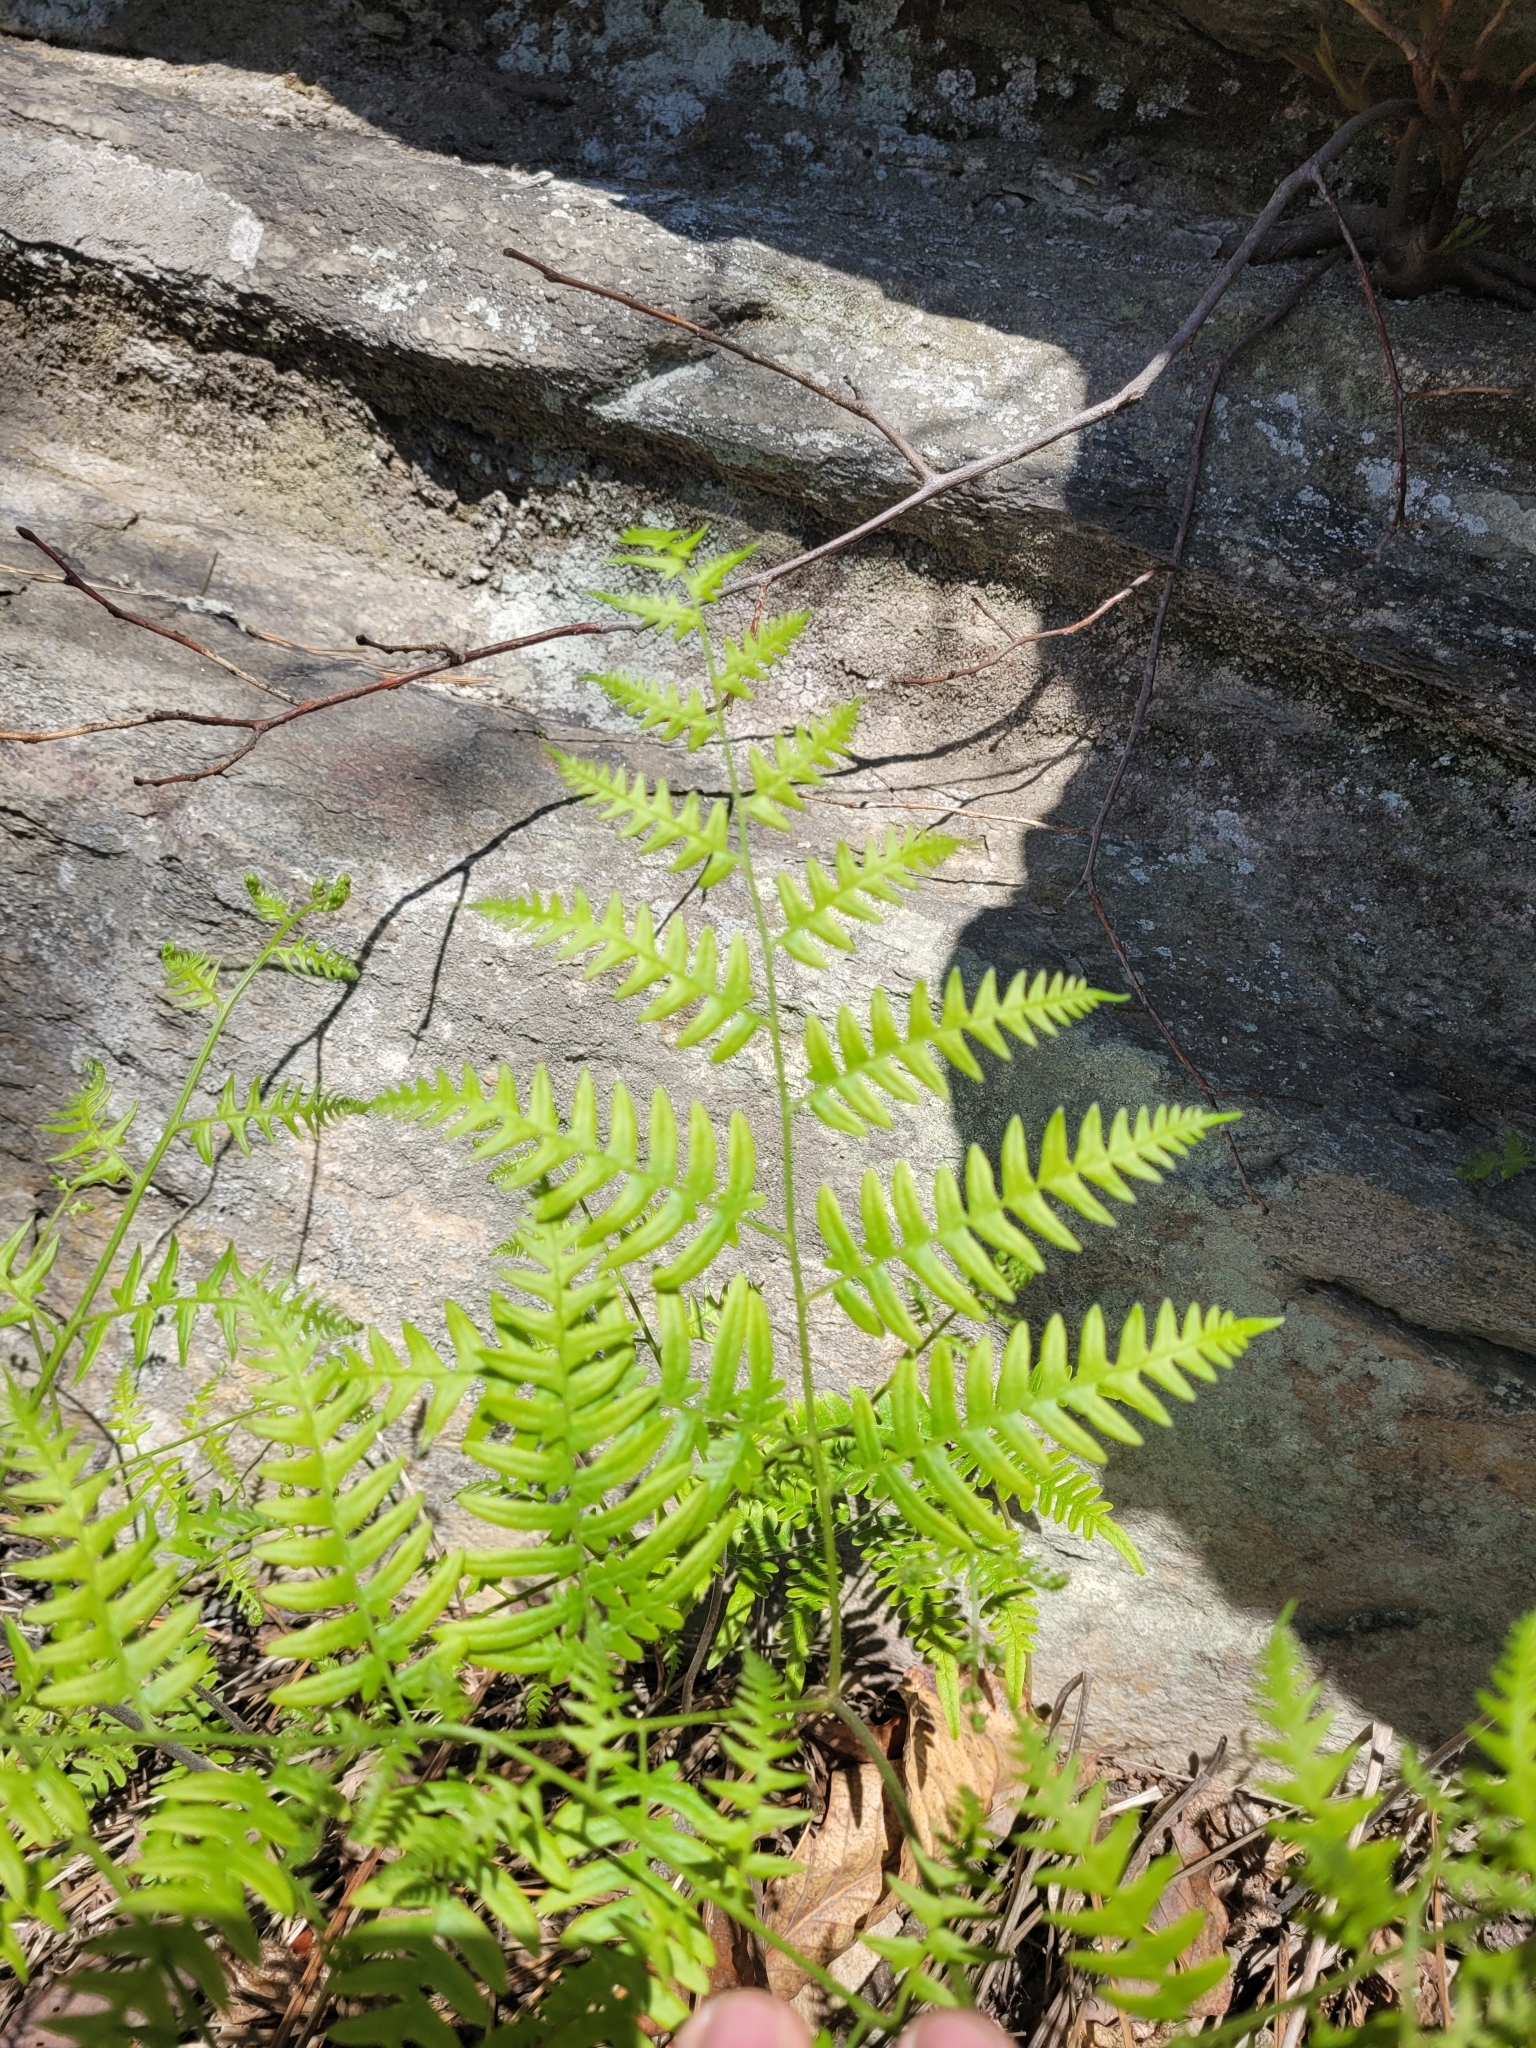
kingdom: Plantae
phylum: Tracheophyta
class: Polypodiopsida
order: Polypodiales
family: Dennstaedtiaceae
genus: Pteridium
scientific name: Pteridium aquilinum
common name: Bracken
